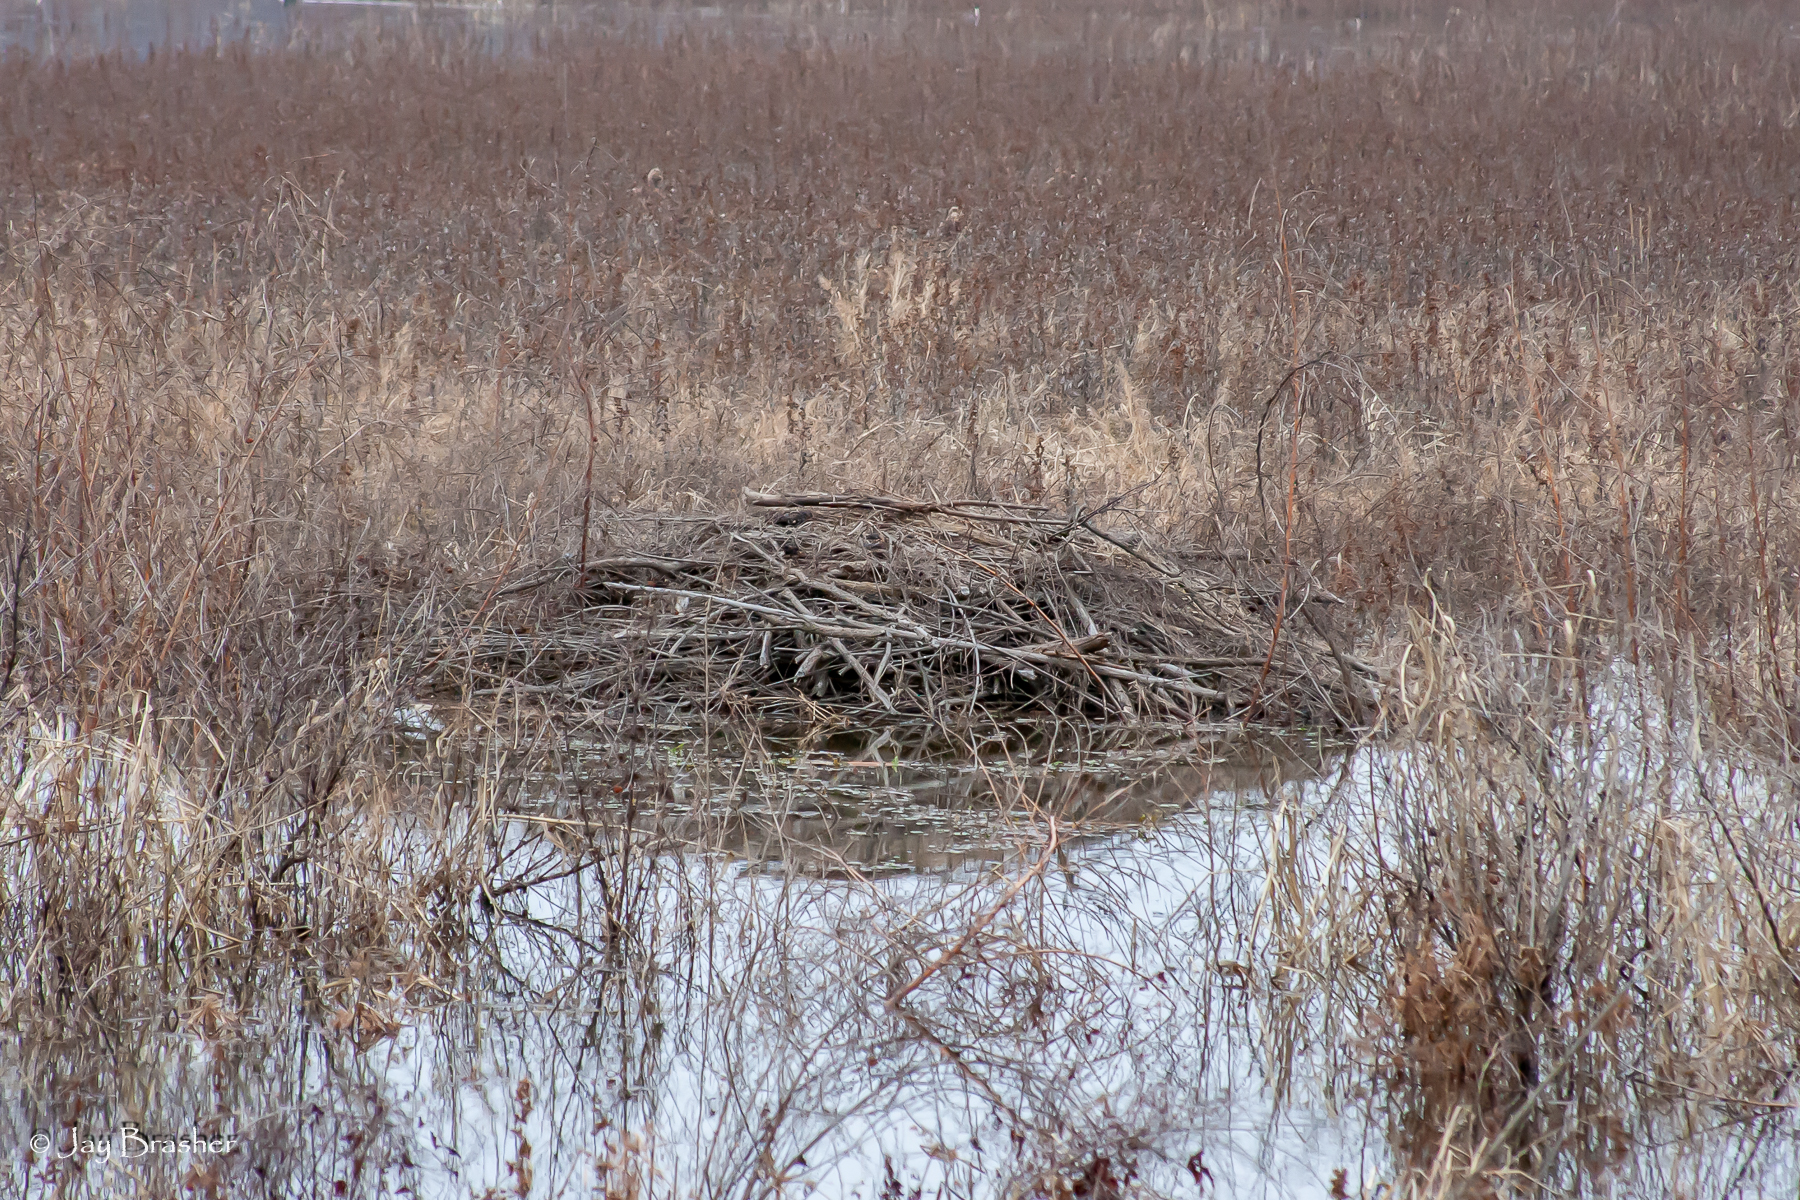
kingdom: Animalia
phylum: Chordata
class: Mammalia
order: Rodentia
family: Castoridae
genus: Castor
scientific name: Castor canadensis
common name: American beaver
